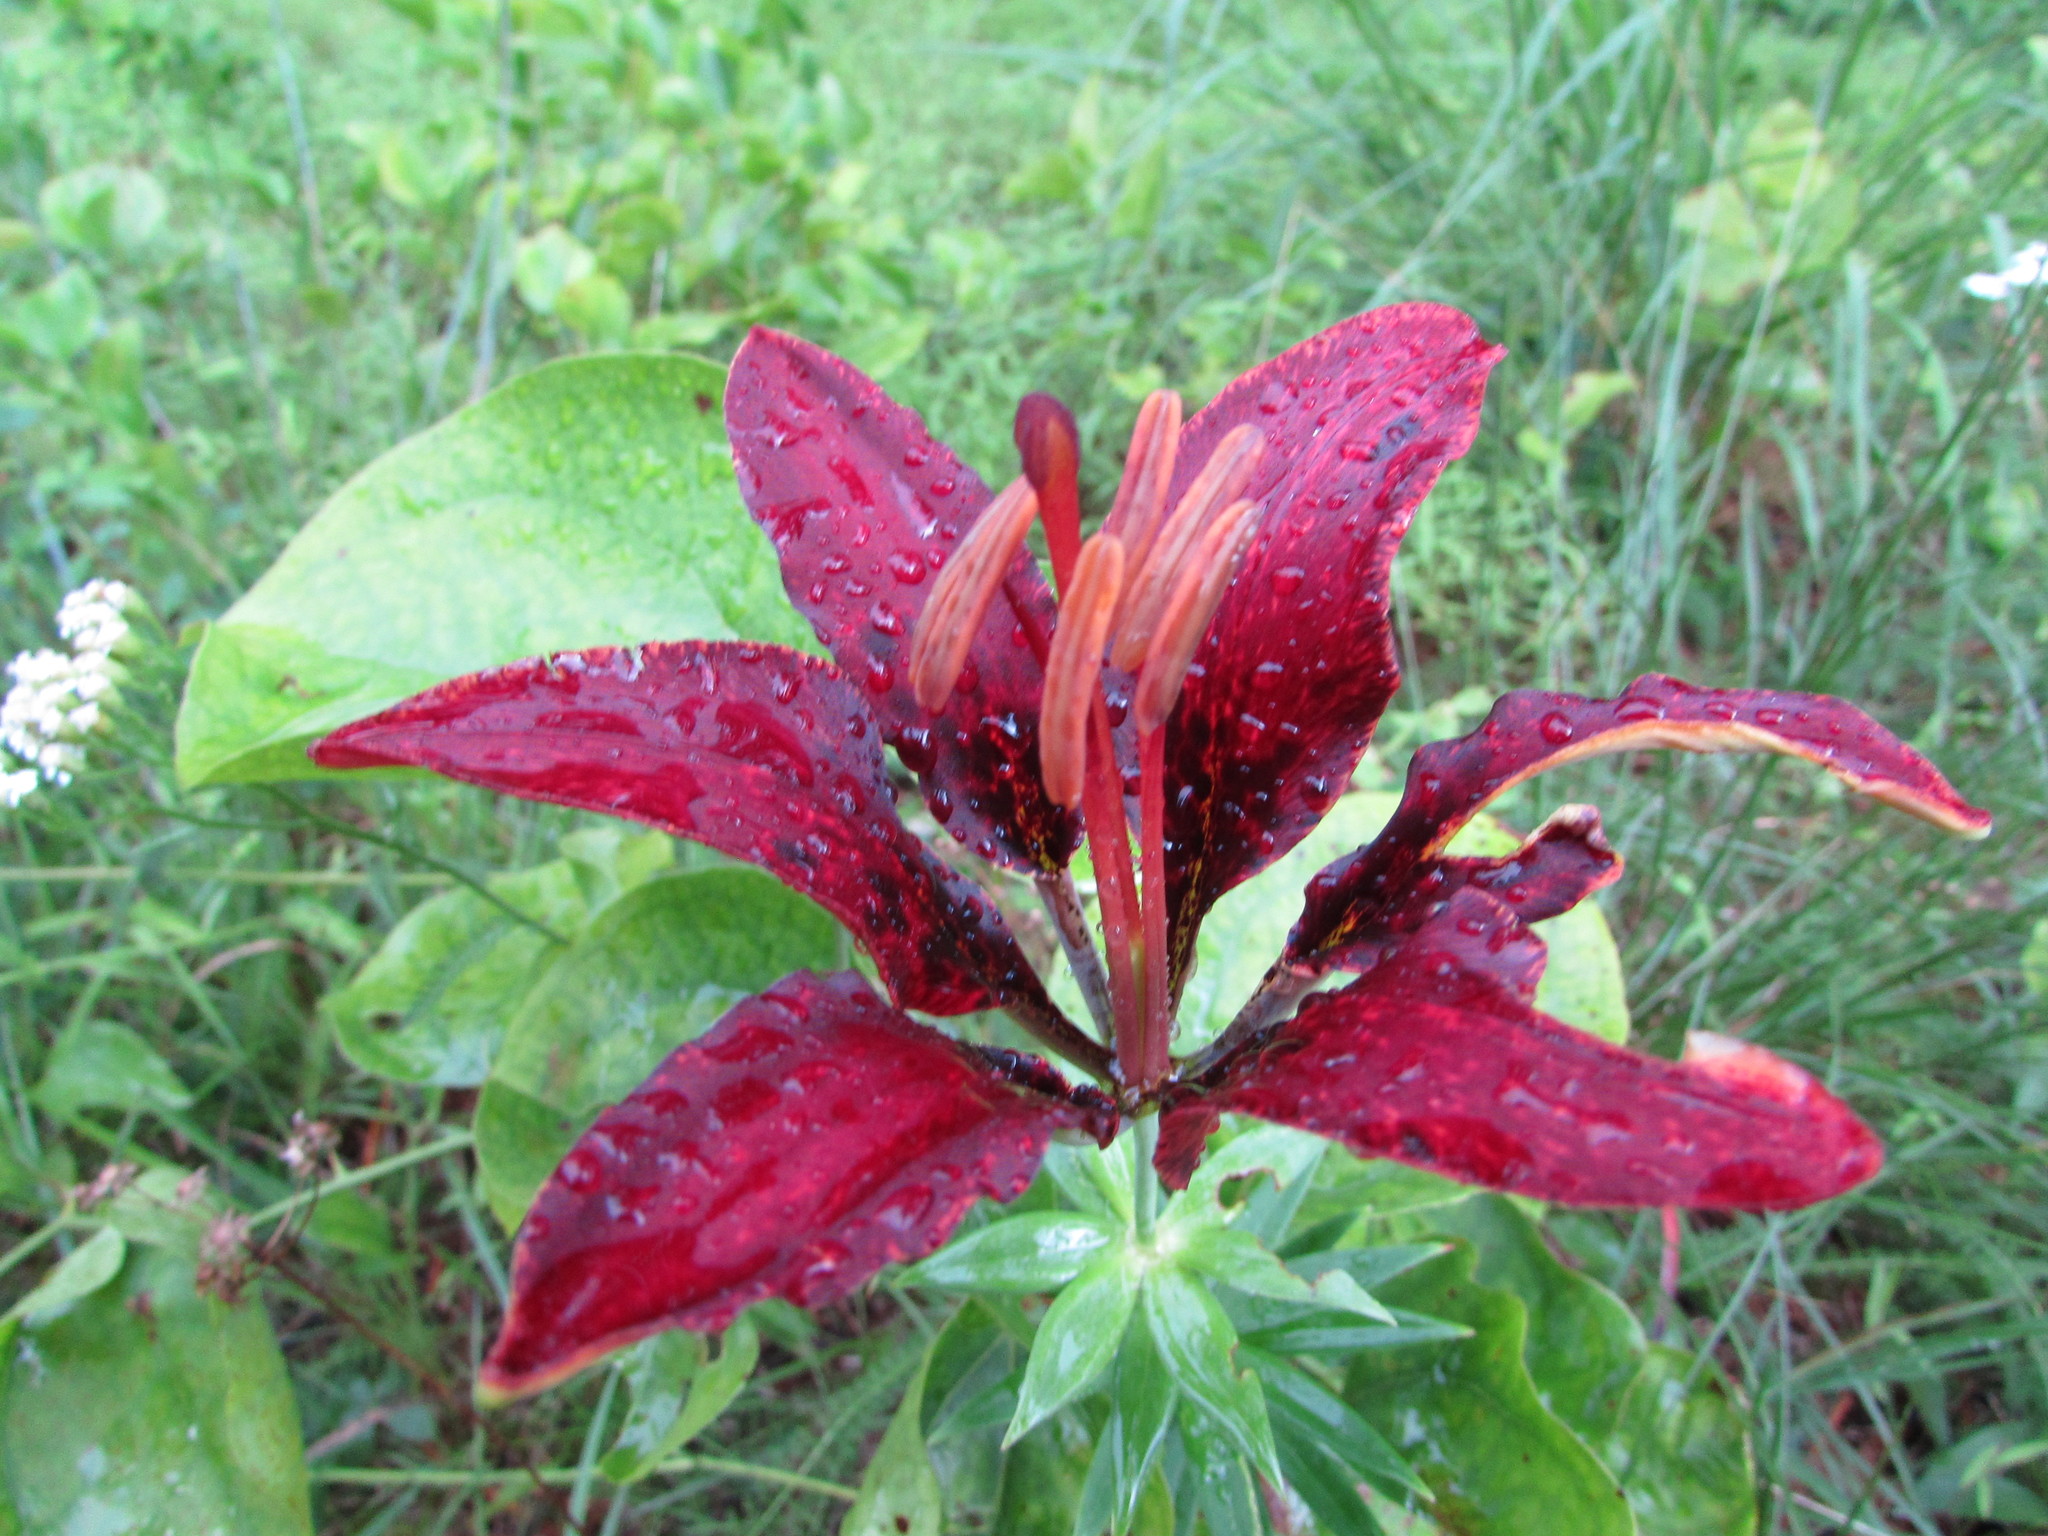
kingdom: Plantae
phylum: Tracheophyta
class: Liliopsida
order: Liliales
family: Liliaceae
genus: Lilium
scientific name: Lilium philadelphicum
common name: Red lily
